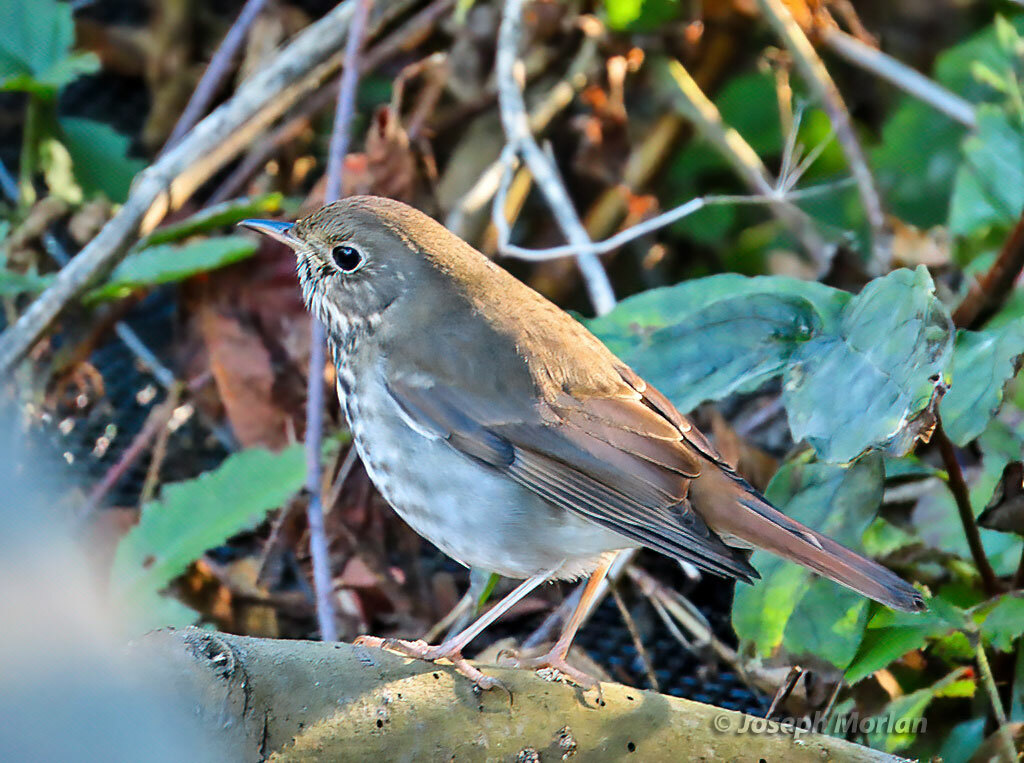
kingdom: Animalia
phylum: Chordata
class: Aves
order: Passeriformes
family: Turdidae
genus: Catharus
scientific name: Catharus guttatus
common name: Hermit thrush
